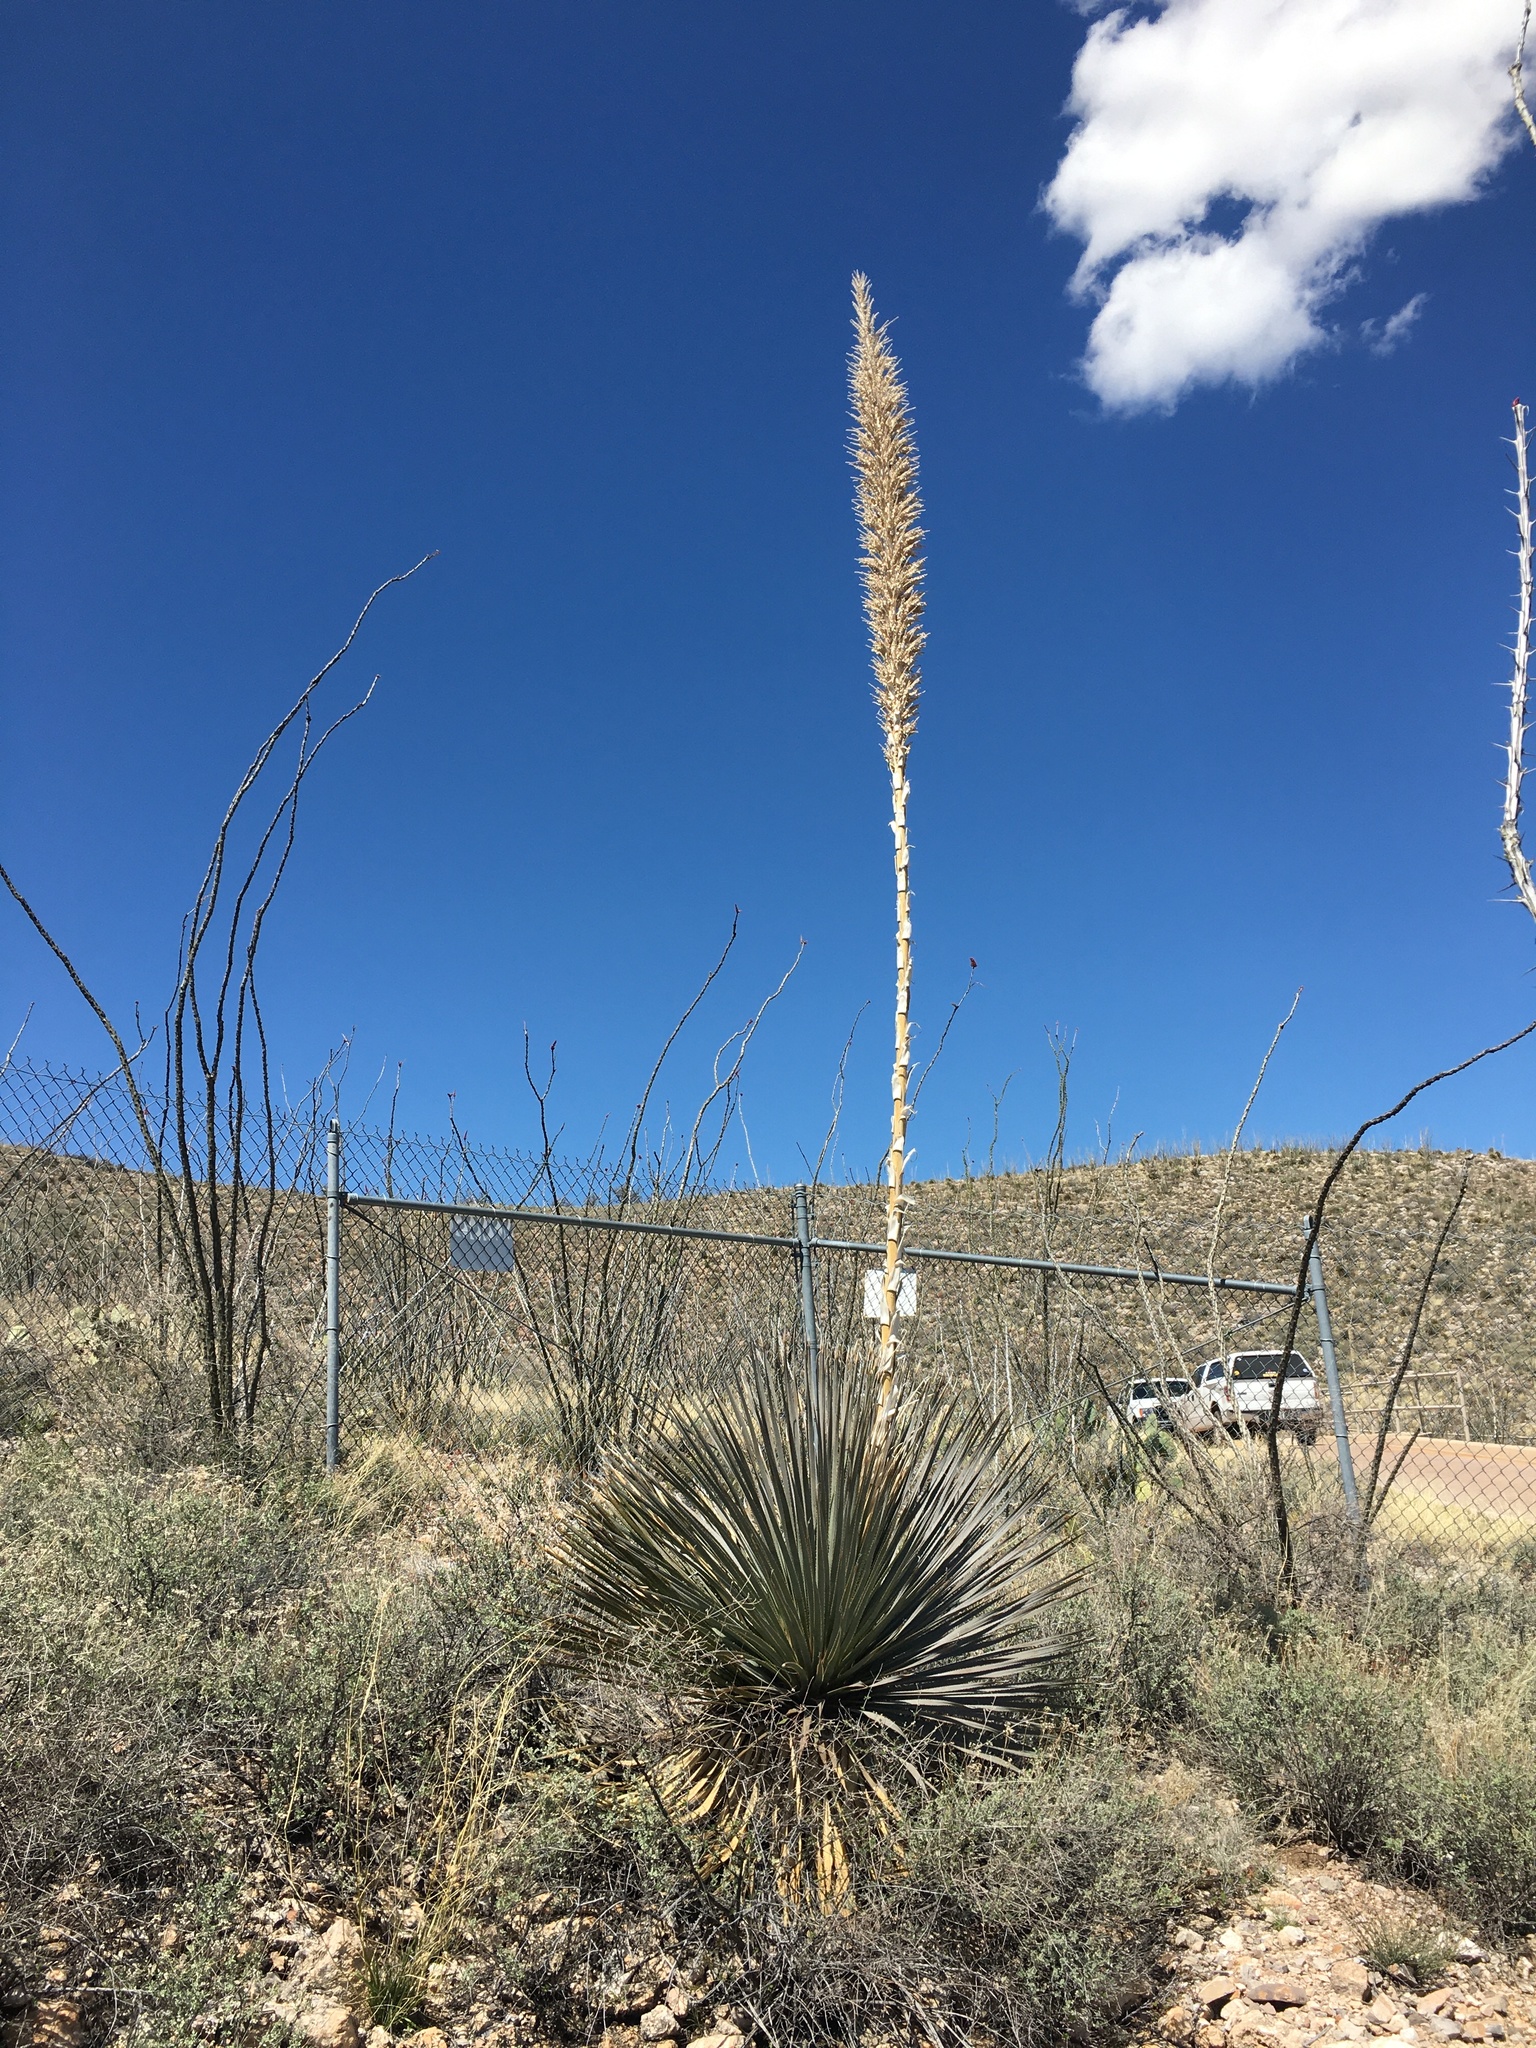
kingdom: Plantae
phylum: Tracheophyta
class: Liliopsida
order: Asparagales
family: Asparagaceae
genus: Dasylirion
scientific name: Dasylirion wheeleri
